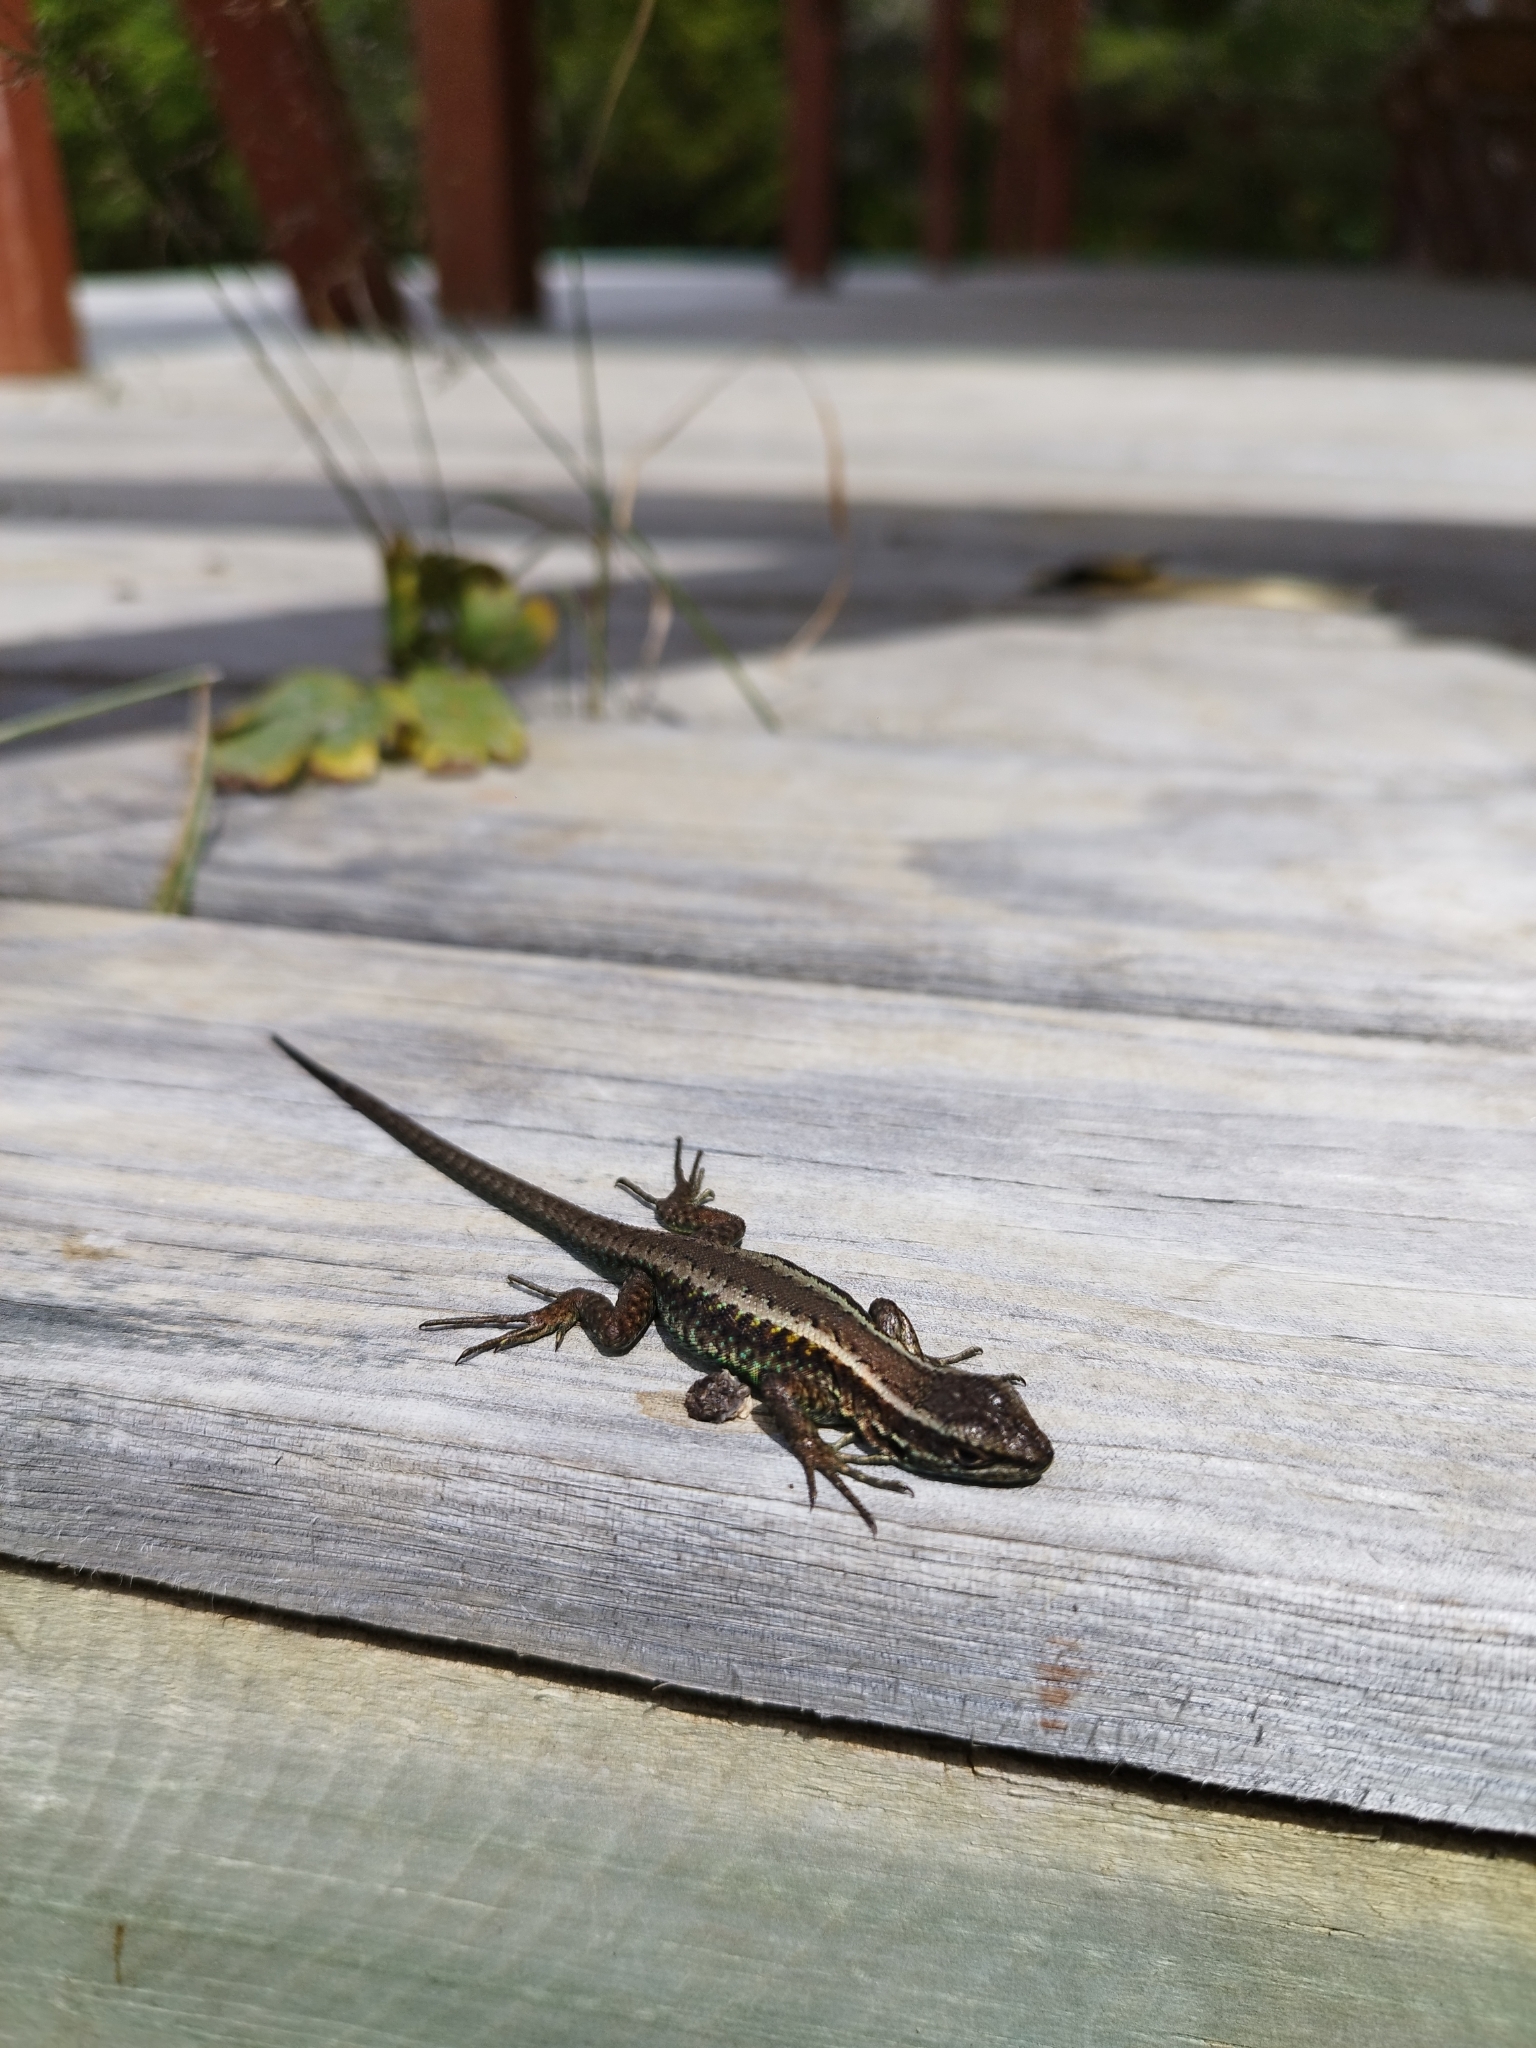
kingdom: Animalia
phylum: Chordata
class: Squamata
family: Liolaemidae
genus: Liolaemus
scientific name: Liolaemus pictus
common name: Painted tree iguana
